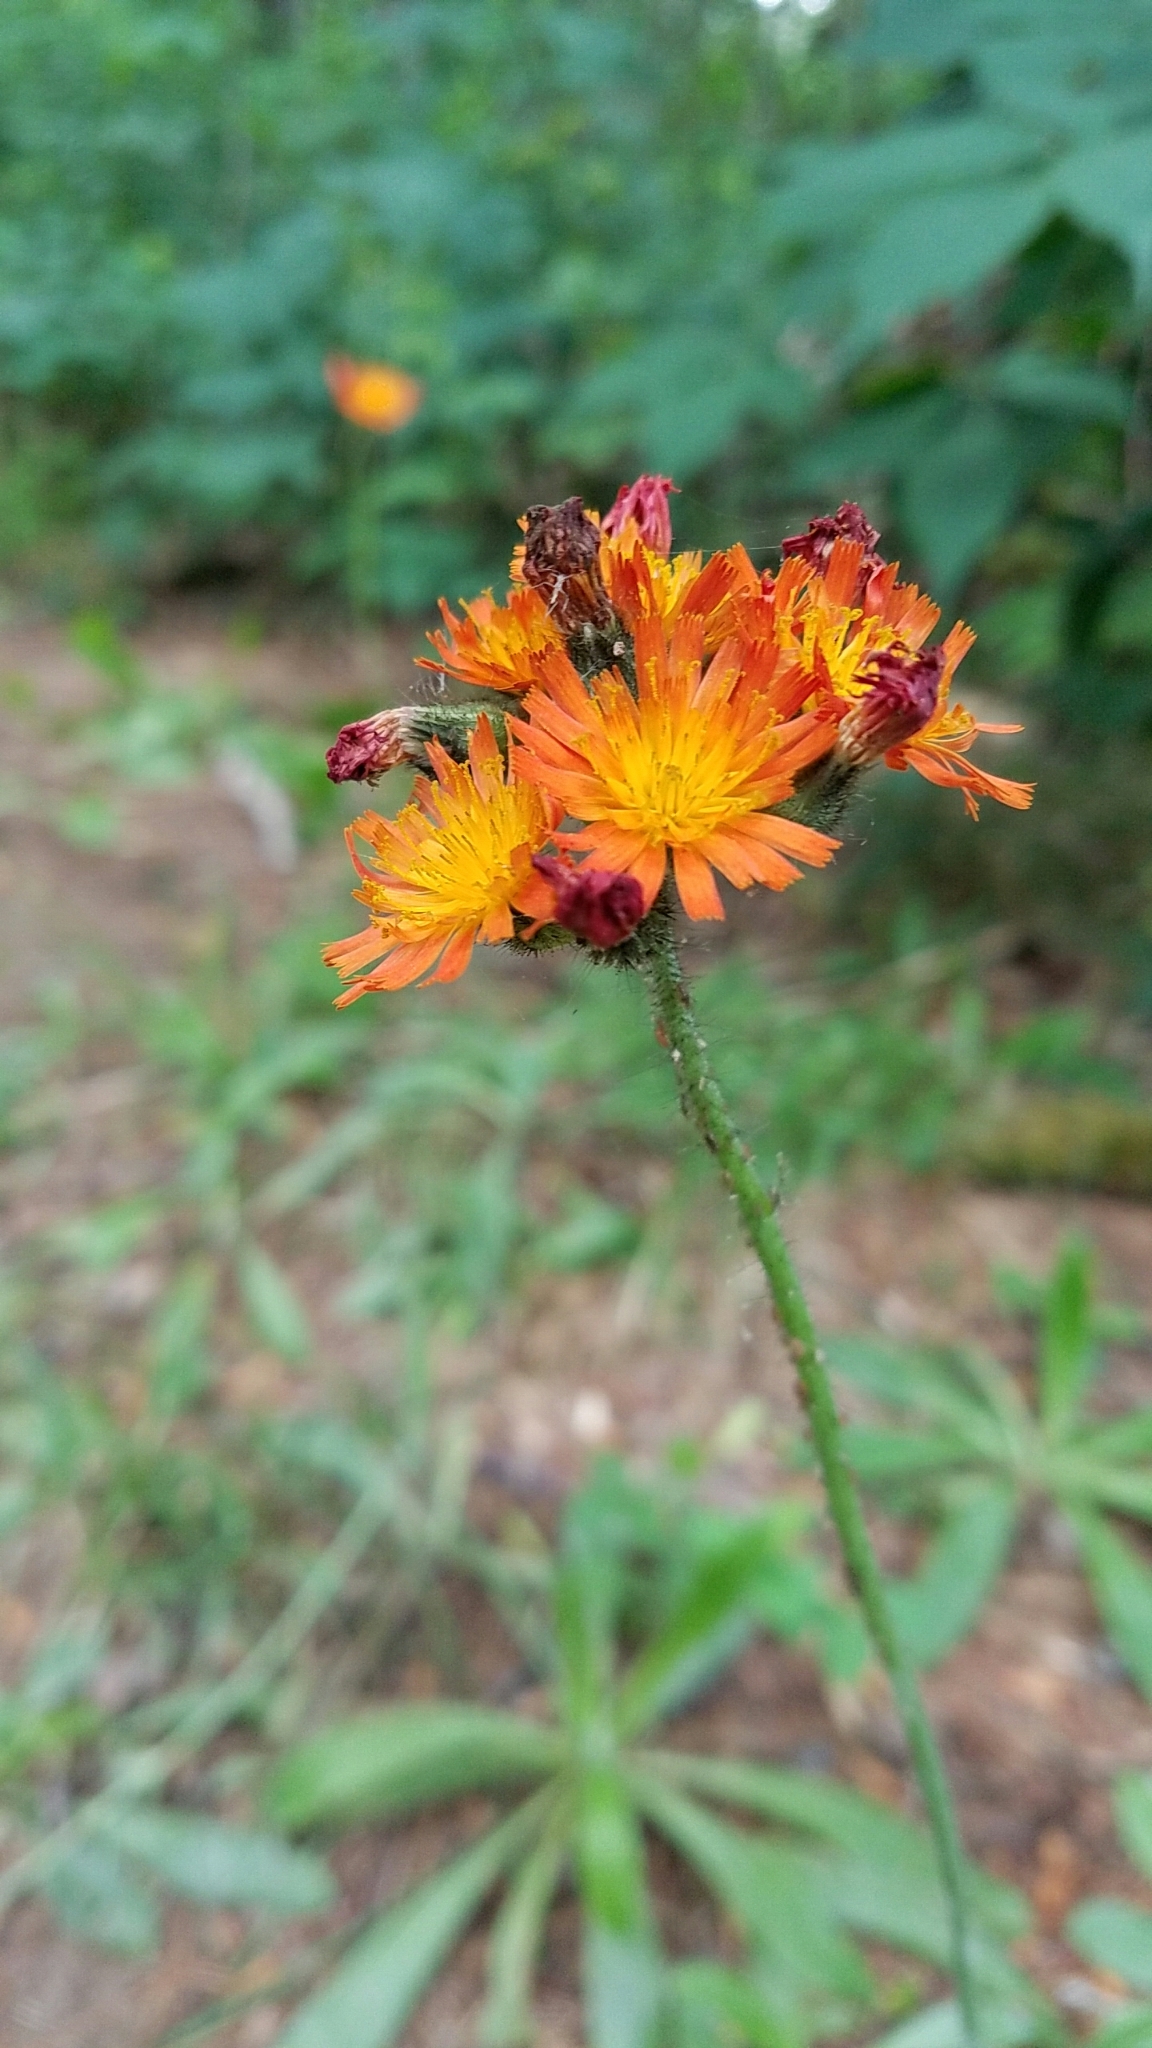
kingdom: Plantae
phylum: Tracheophyta
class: Magnoliopsida
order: Asterales
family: Asteraceae
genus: Pilosella
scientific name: Pilosella aurantiaca
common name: Fox-and-cubs
